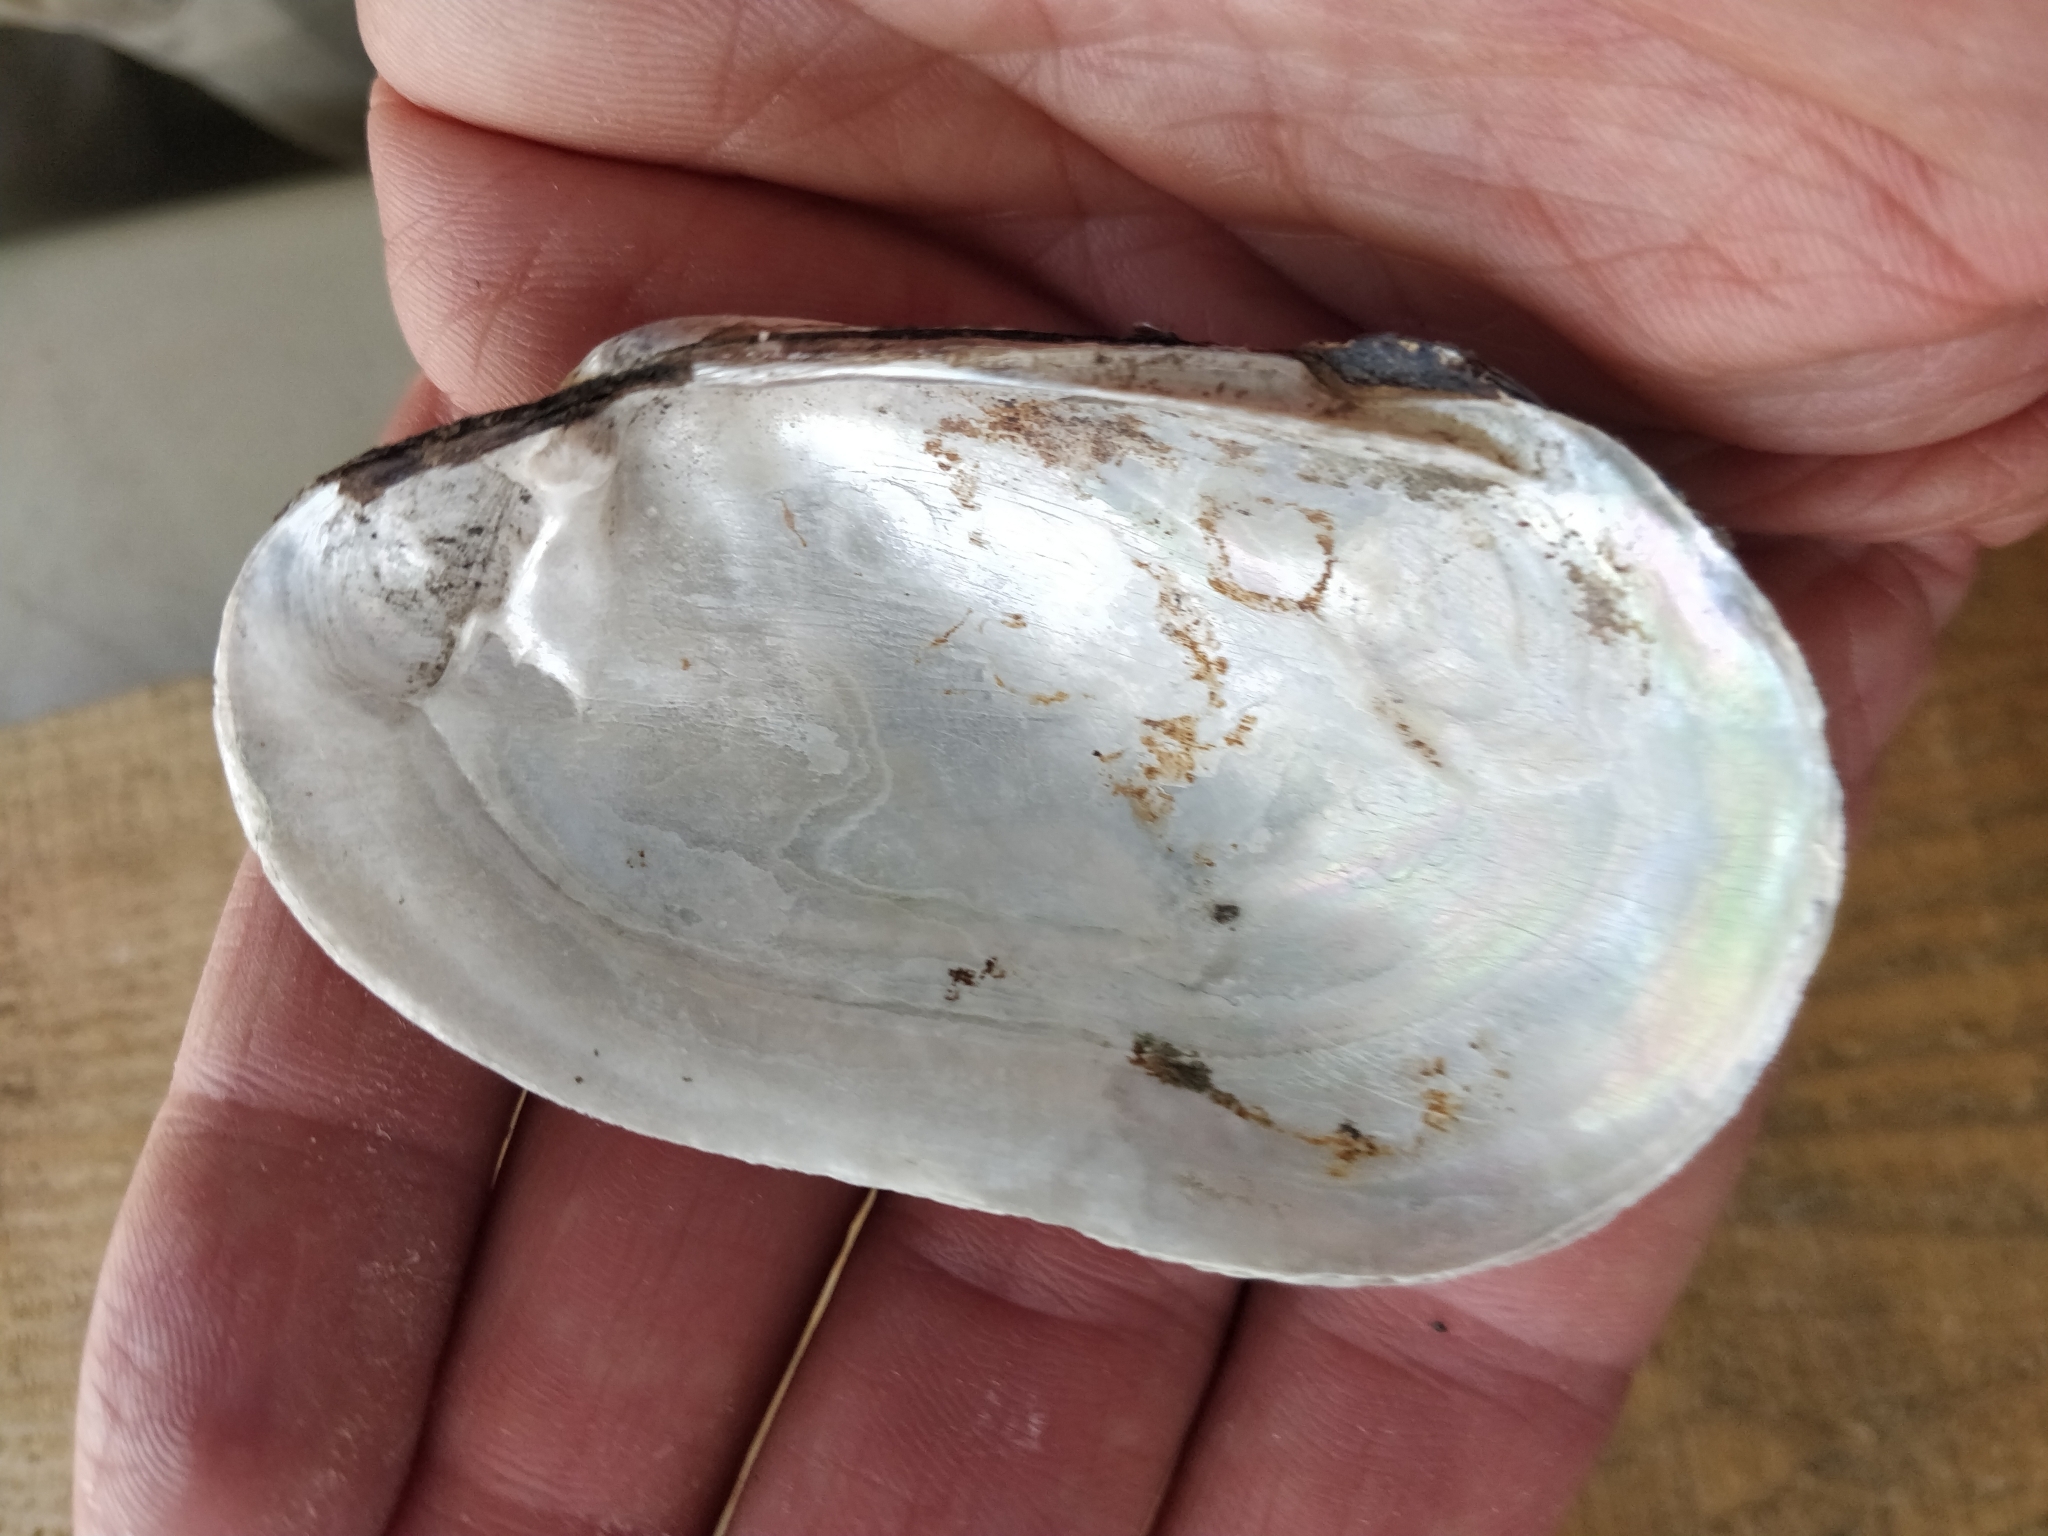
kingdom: Animalia
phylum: Mollusca
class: Bivalvia
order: Unionida
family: Unionidae
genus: Lampsilis
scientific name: Lampsilis siliquoidea
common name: Fatmucket
